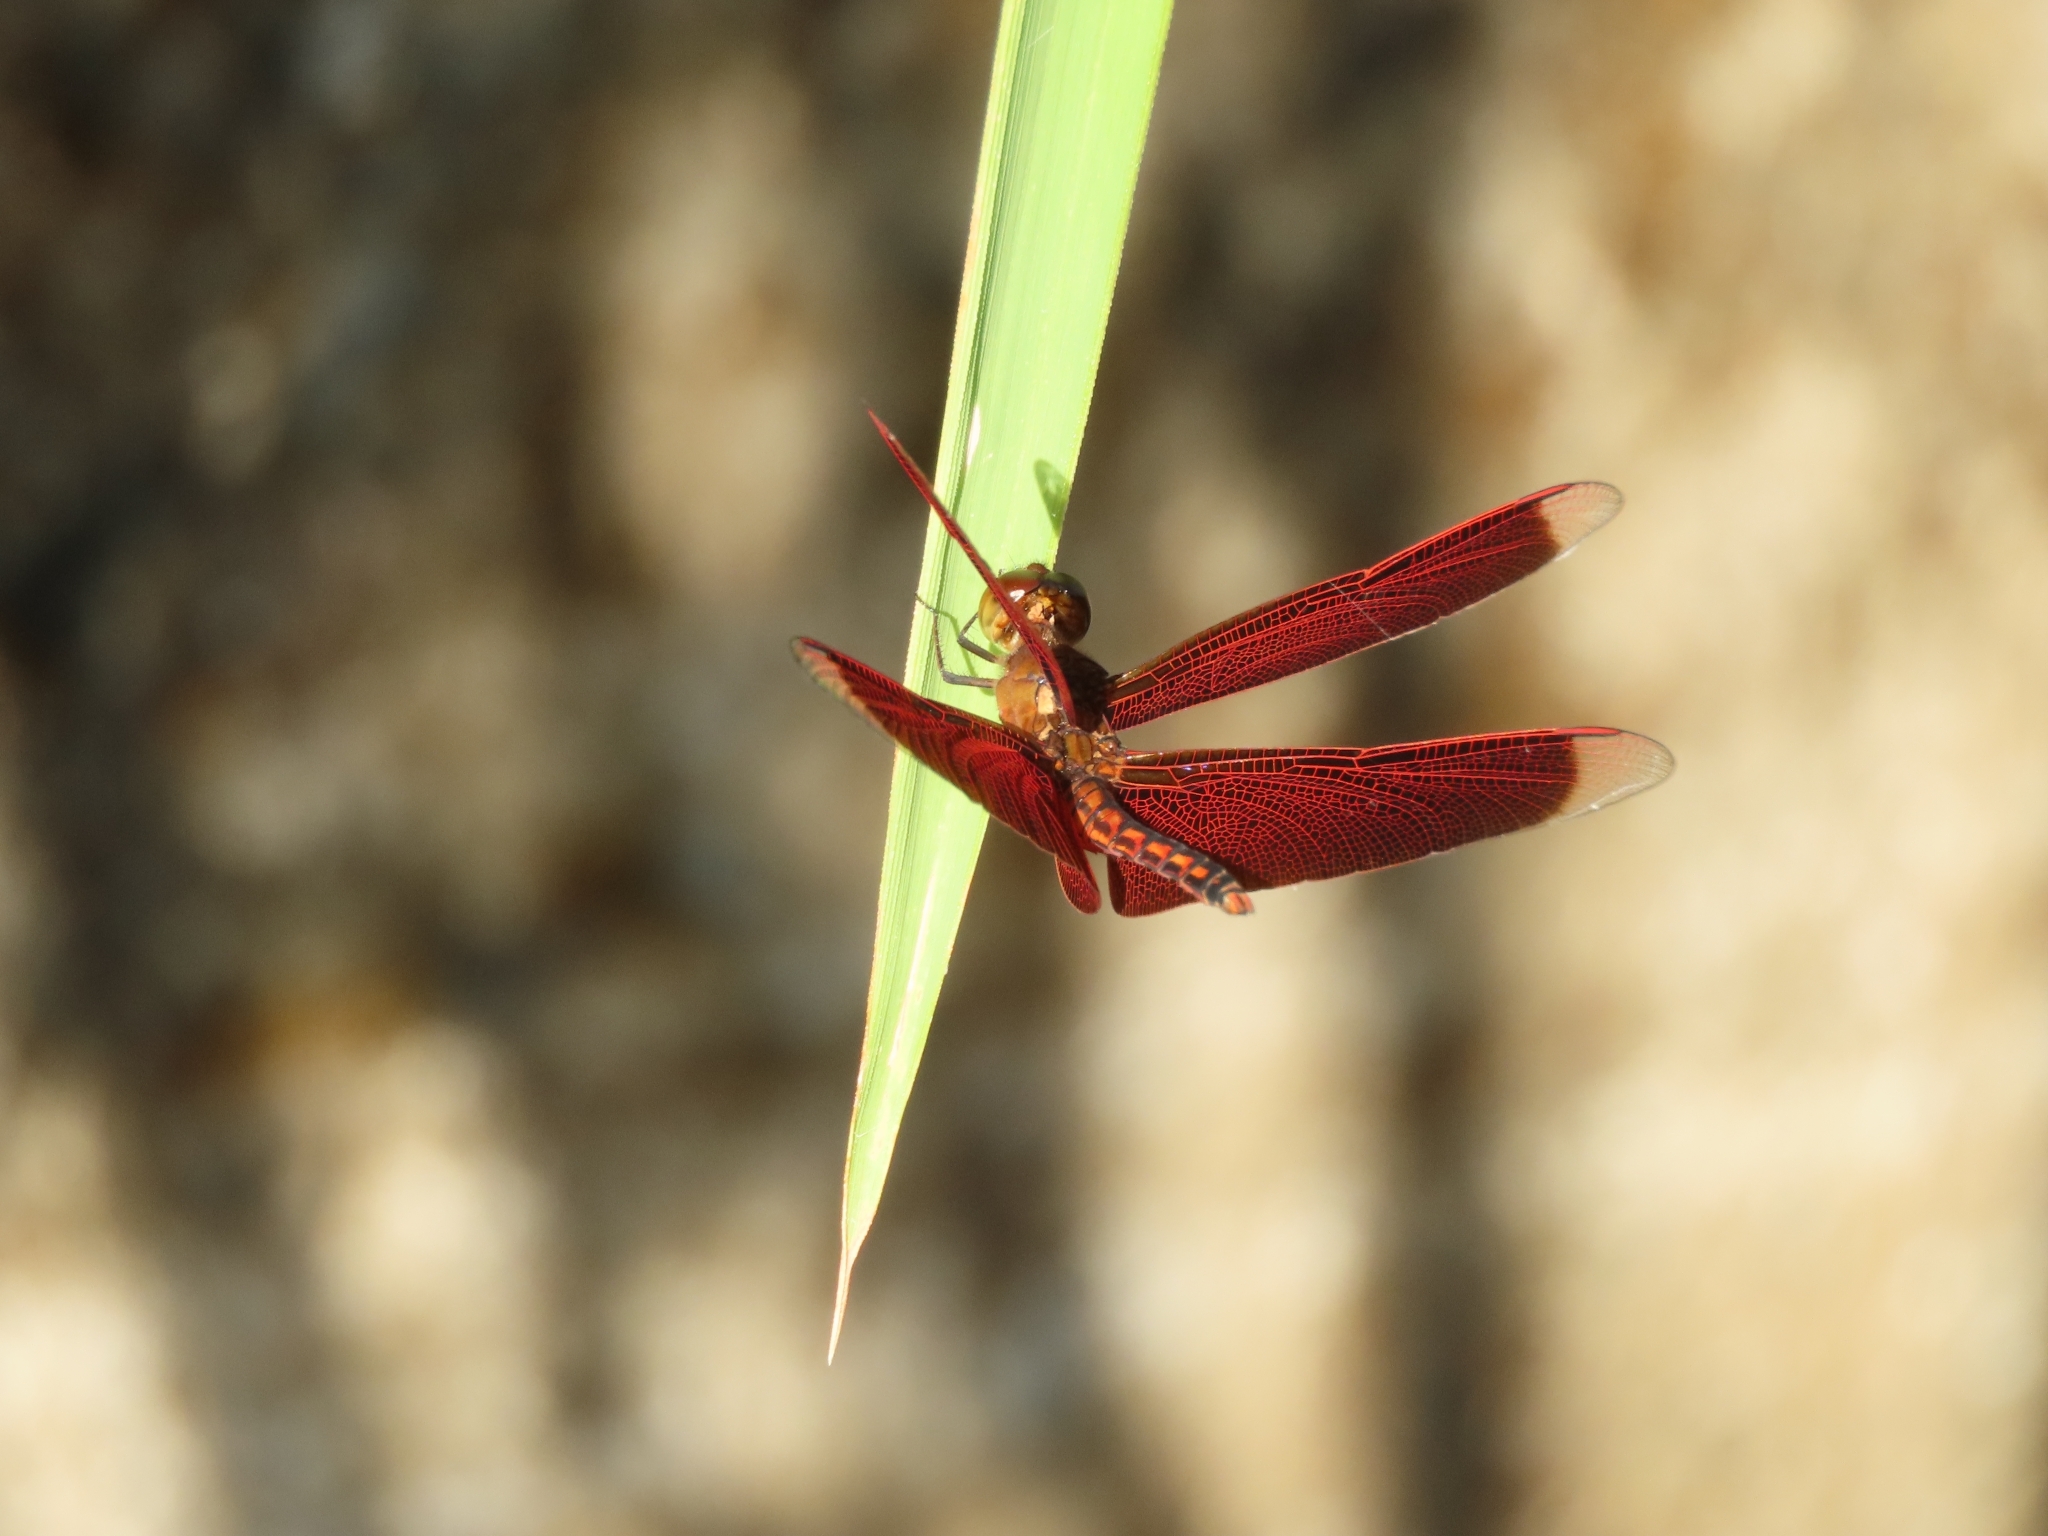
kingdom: Animalia
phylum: Arthropoda
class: Insecta
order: Odonata
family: Libellulidae
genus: Neurothemis
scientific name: Neurothemis taiwanensis
